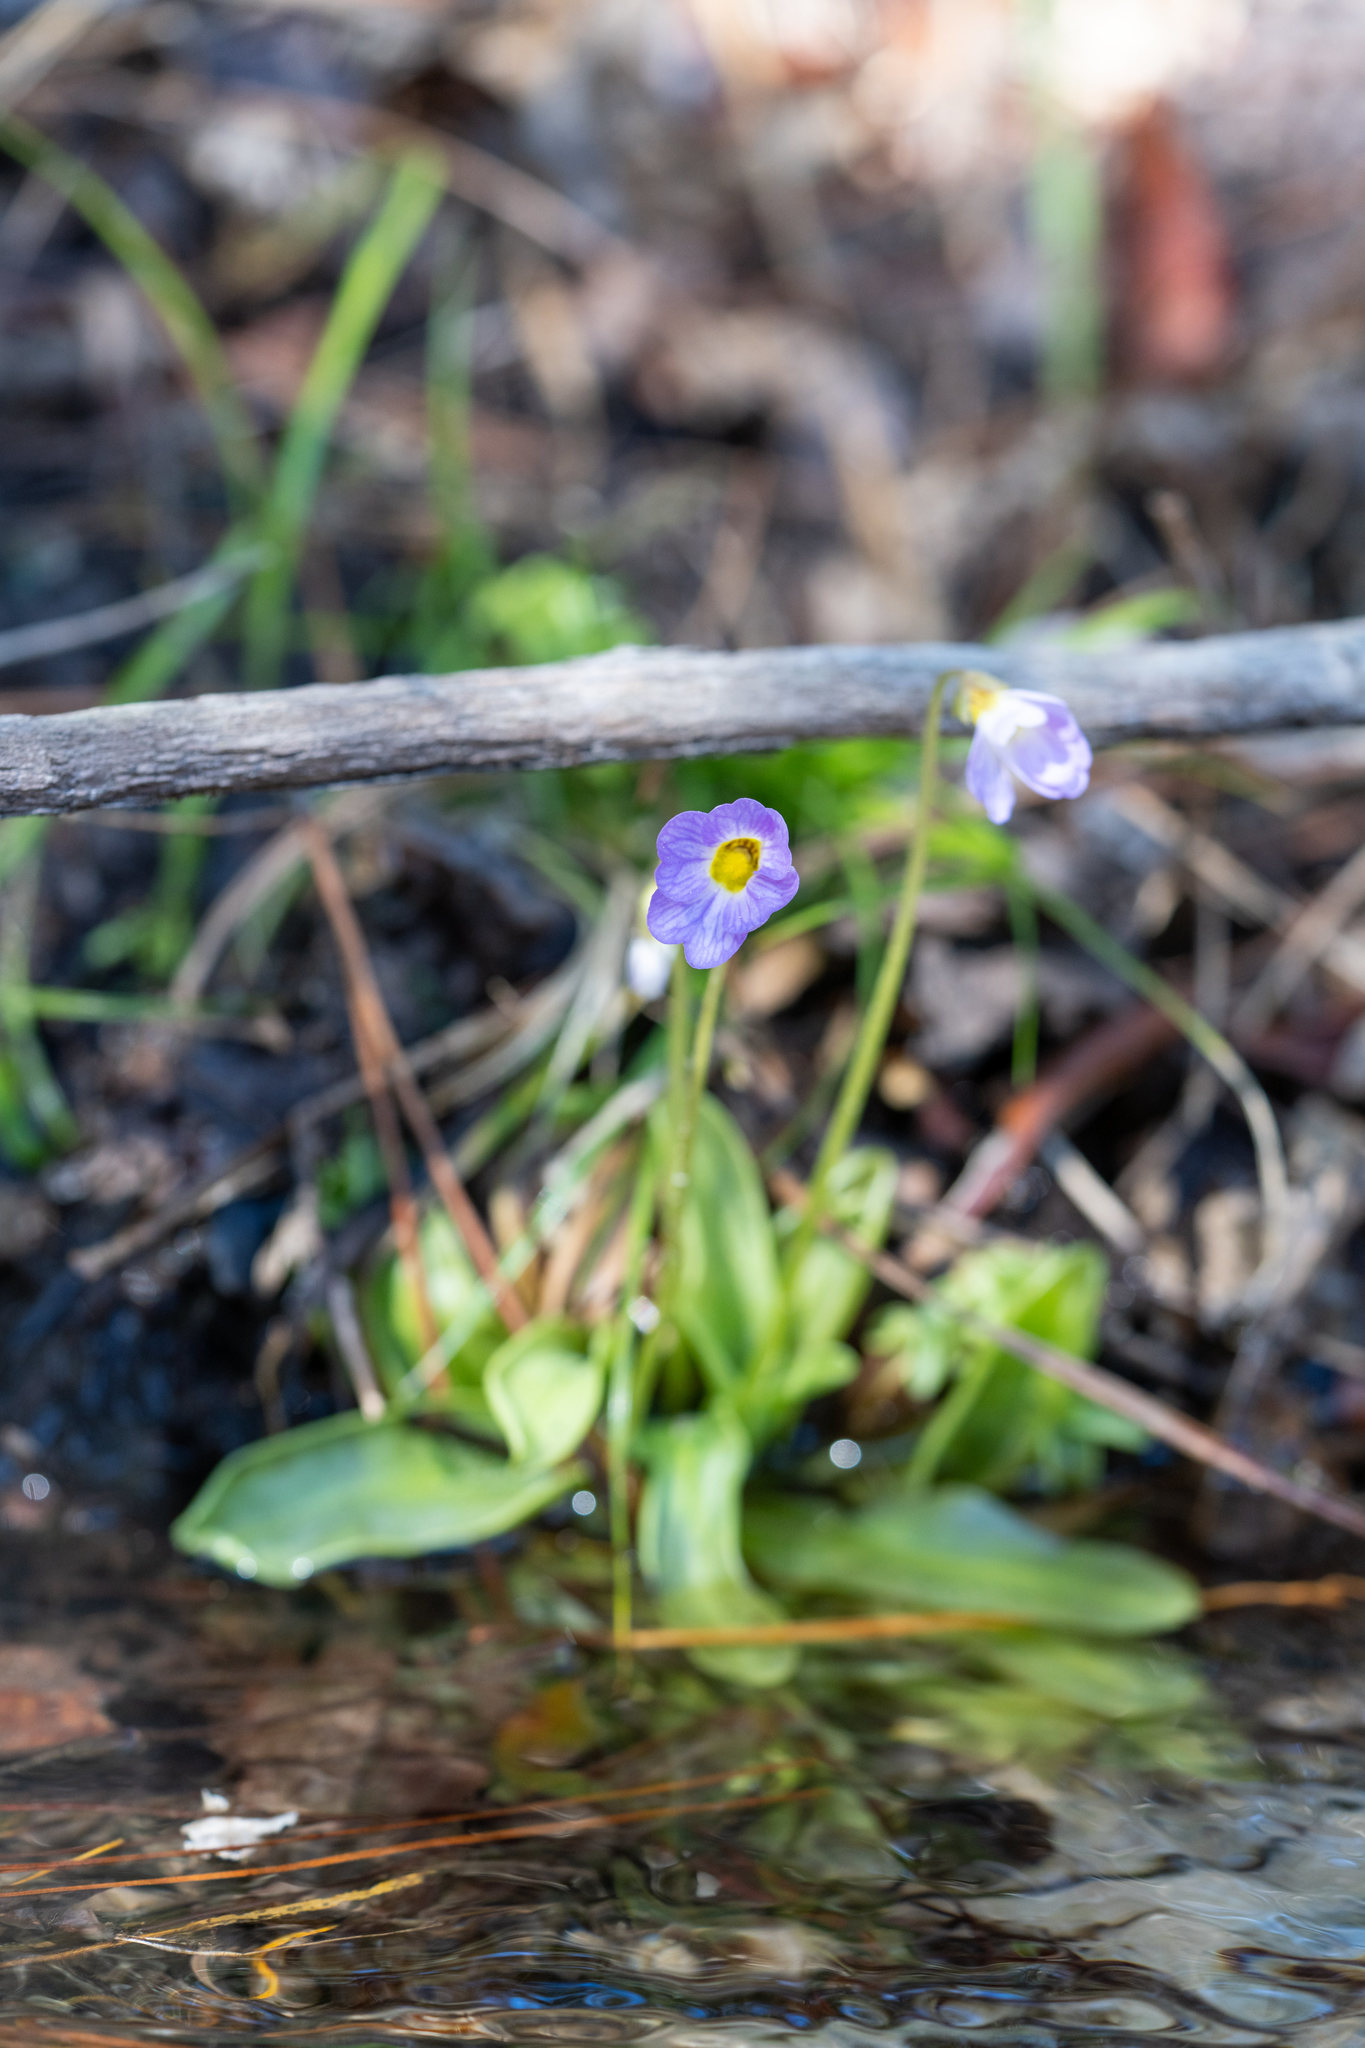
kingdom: Plantae
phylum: Tracheophyta
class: Magnoliopsida
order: Lamiales
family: Lentibulariaceae
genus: Pinguicula
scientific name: Pinguicula primuliflora
